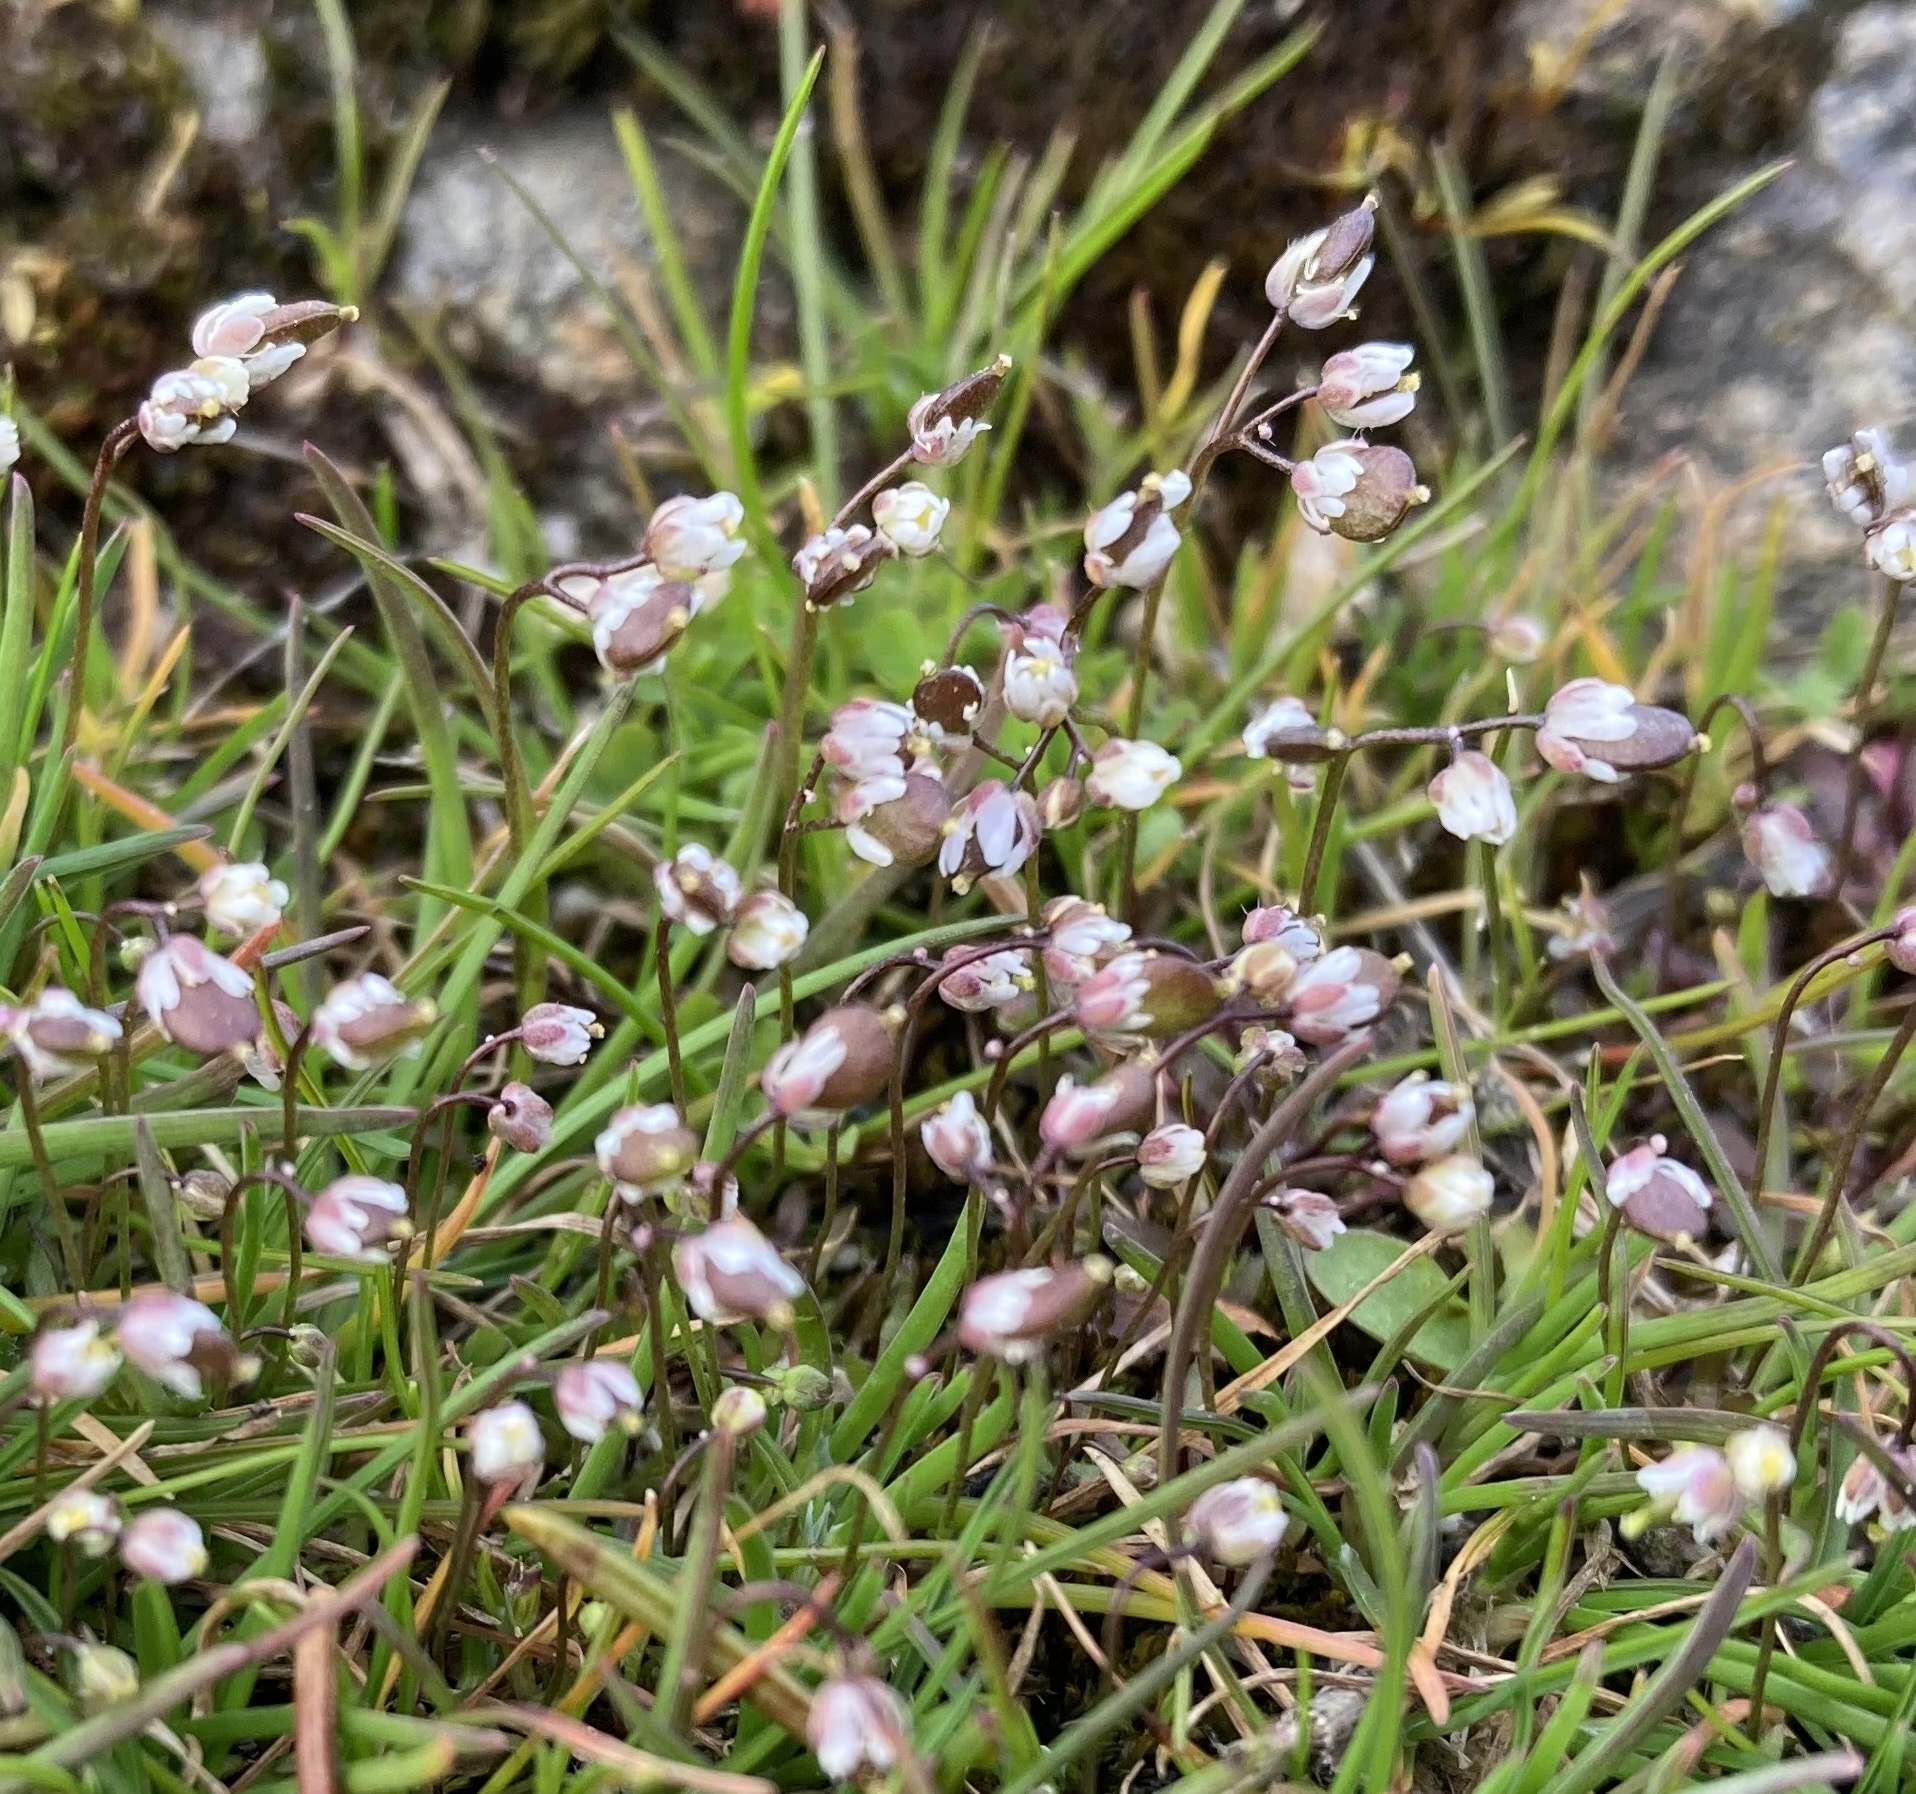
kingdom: Plantae
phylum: Tracheophyta
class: Magnoliopsida
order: Brassicales
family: Brassicaceae
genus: Draba
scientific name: Draba verna
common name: Spring draba
